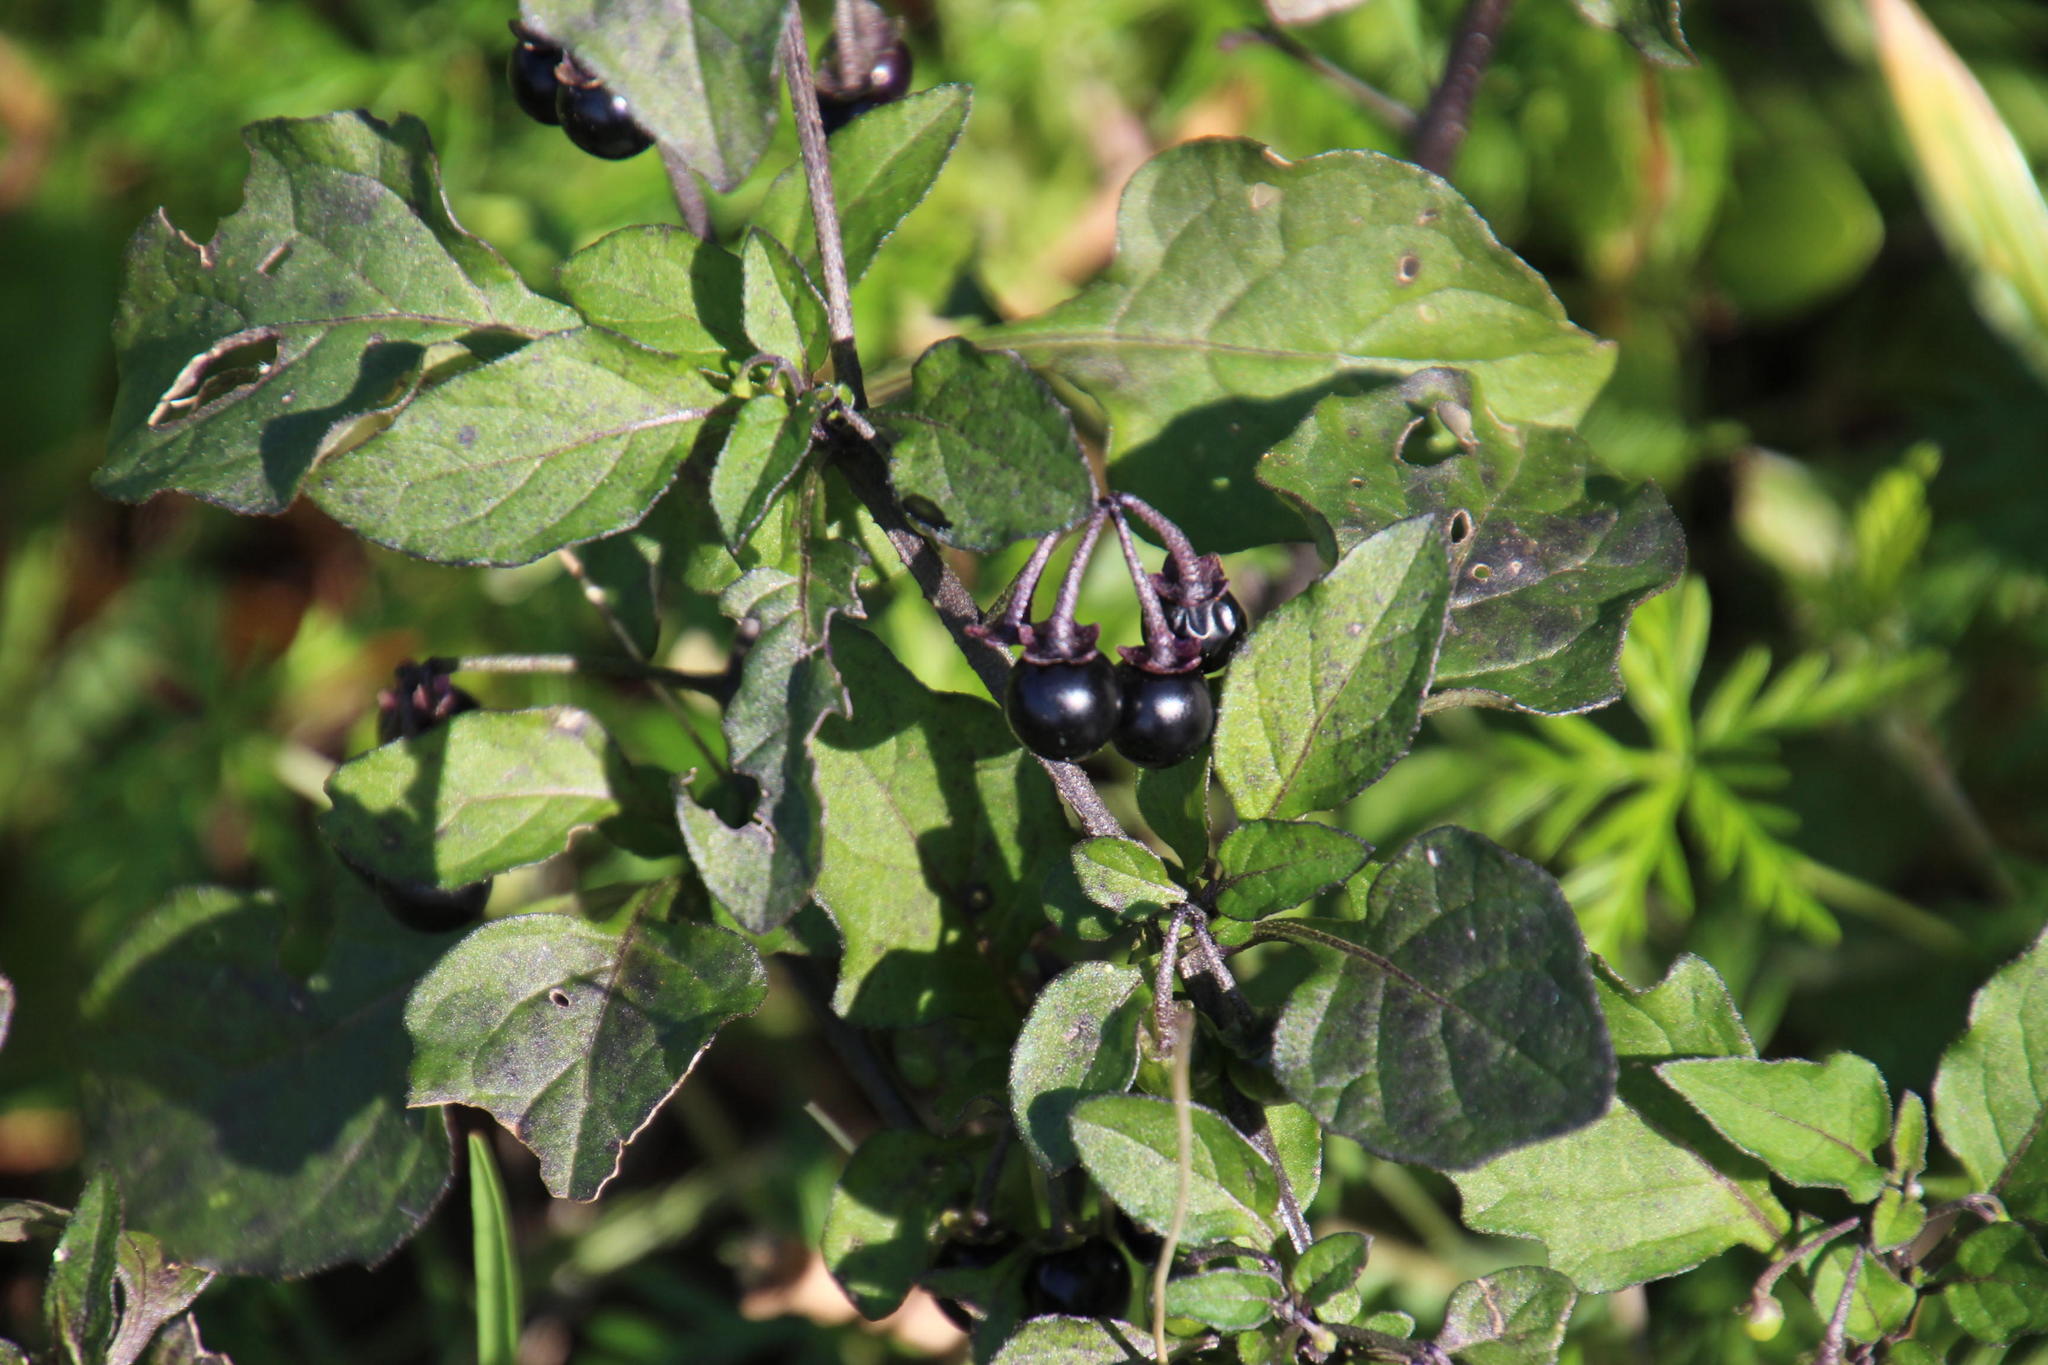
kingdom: Plantae
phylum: Tracheophyta
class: Magnoliopsida
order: Solanales
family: Solanaceae
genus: Solanum
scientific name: Solanum nigrum
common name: Black nightshade
